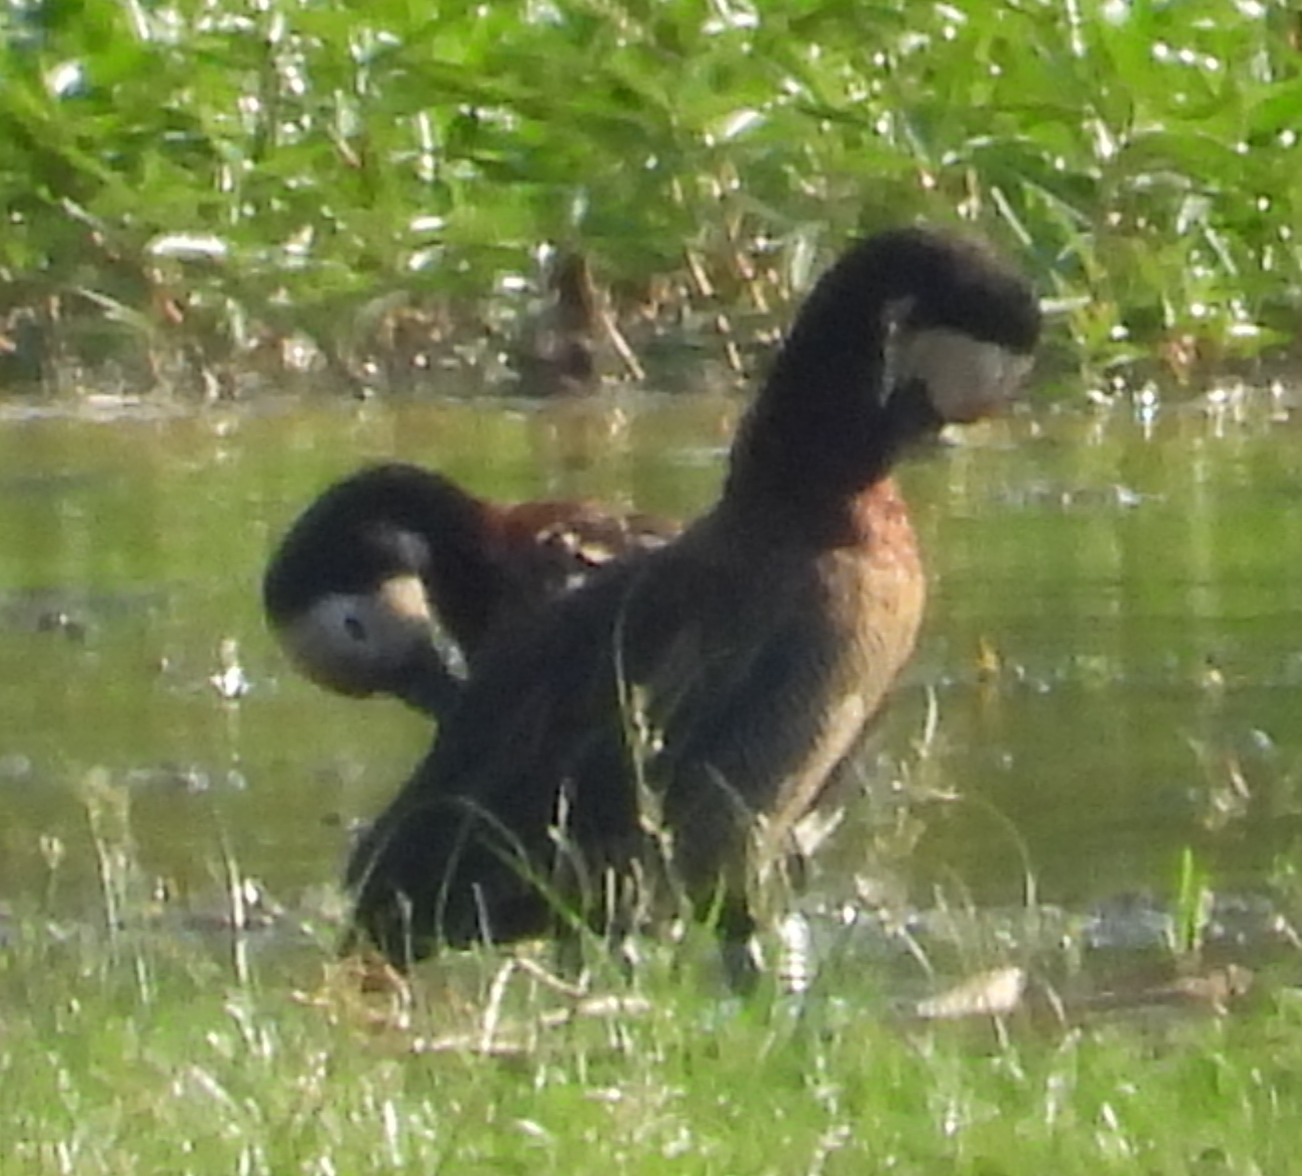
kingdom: Animalia
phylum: Chordata
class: Aves
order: Anseriformes
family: Anatidae
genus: Dendrocygna
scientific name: Dendrocygna viduata
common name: White-faced whistling duck
